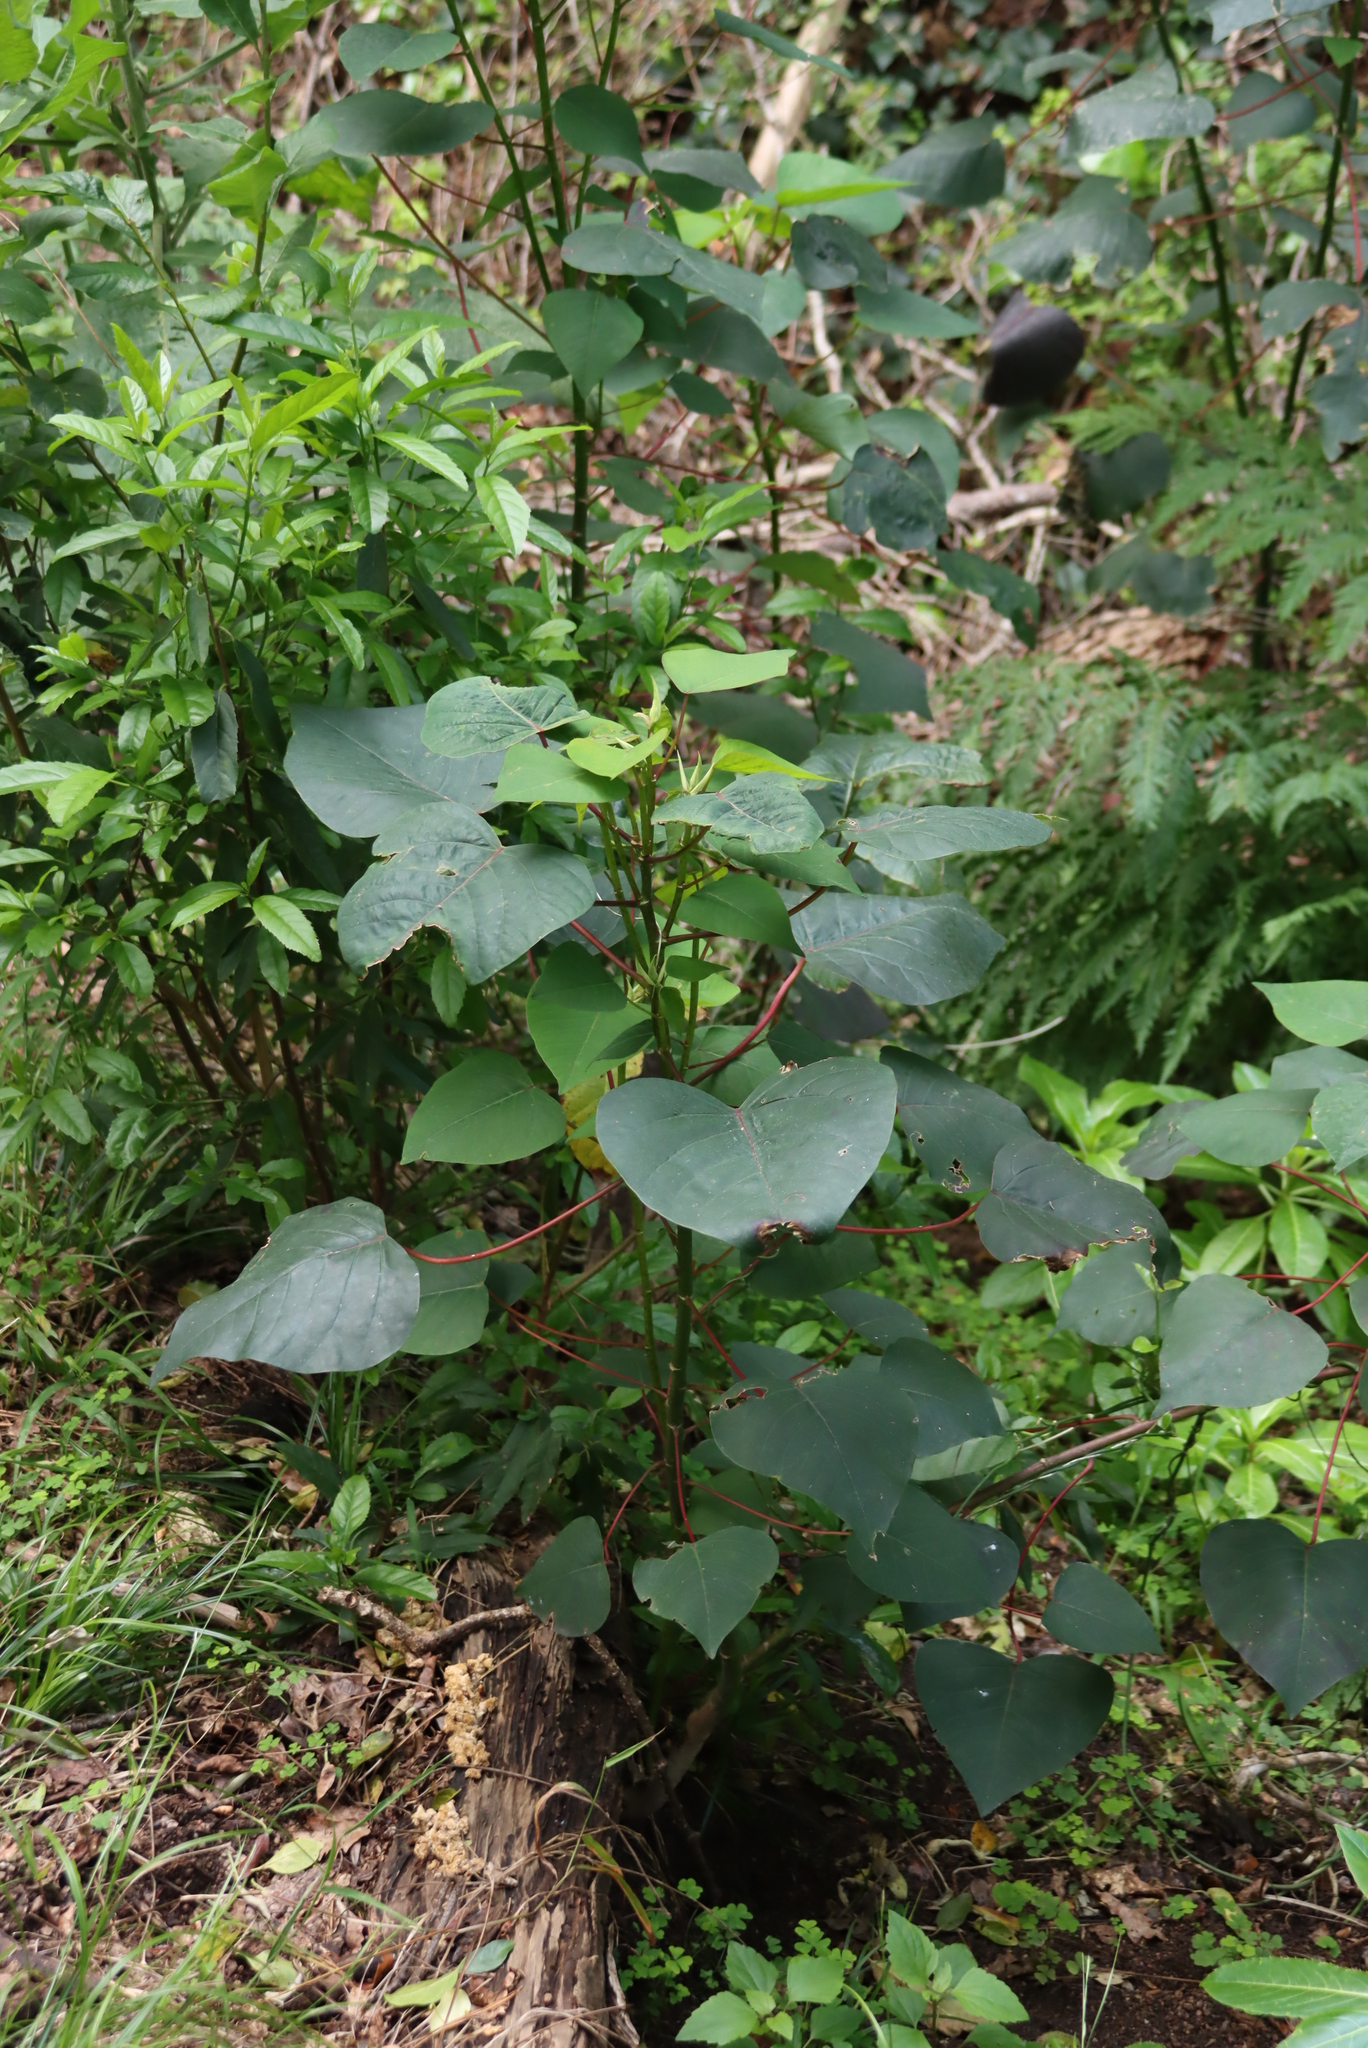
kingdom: Plantae
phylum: Tracheophyta
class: Magnoliopsida
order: Malpighiales
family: Euphorbiaceae
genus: Homalanthus
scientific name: Homalanthus populifolius
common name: Queensland poplar
